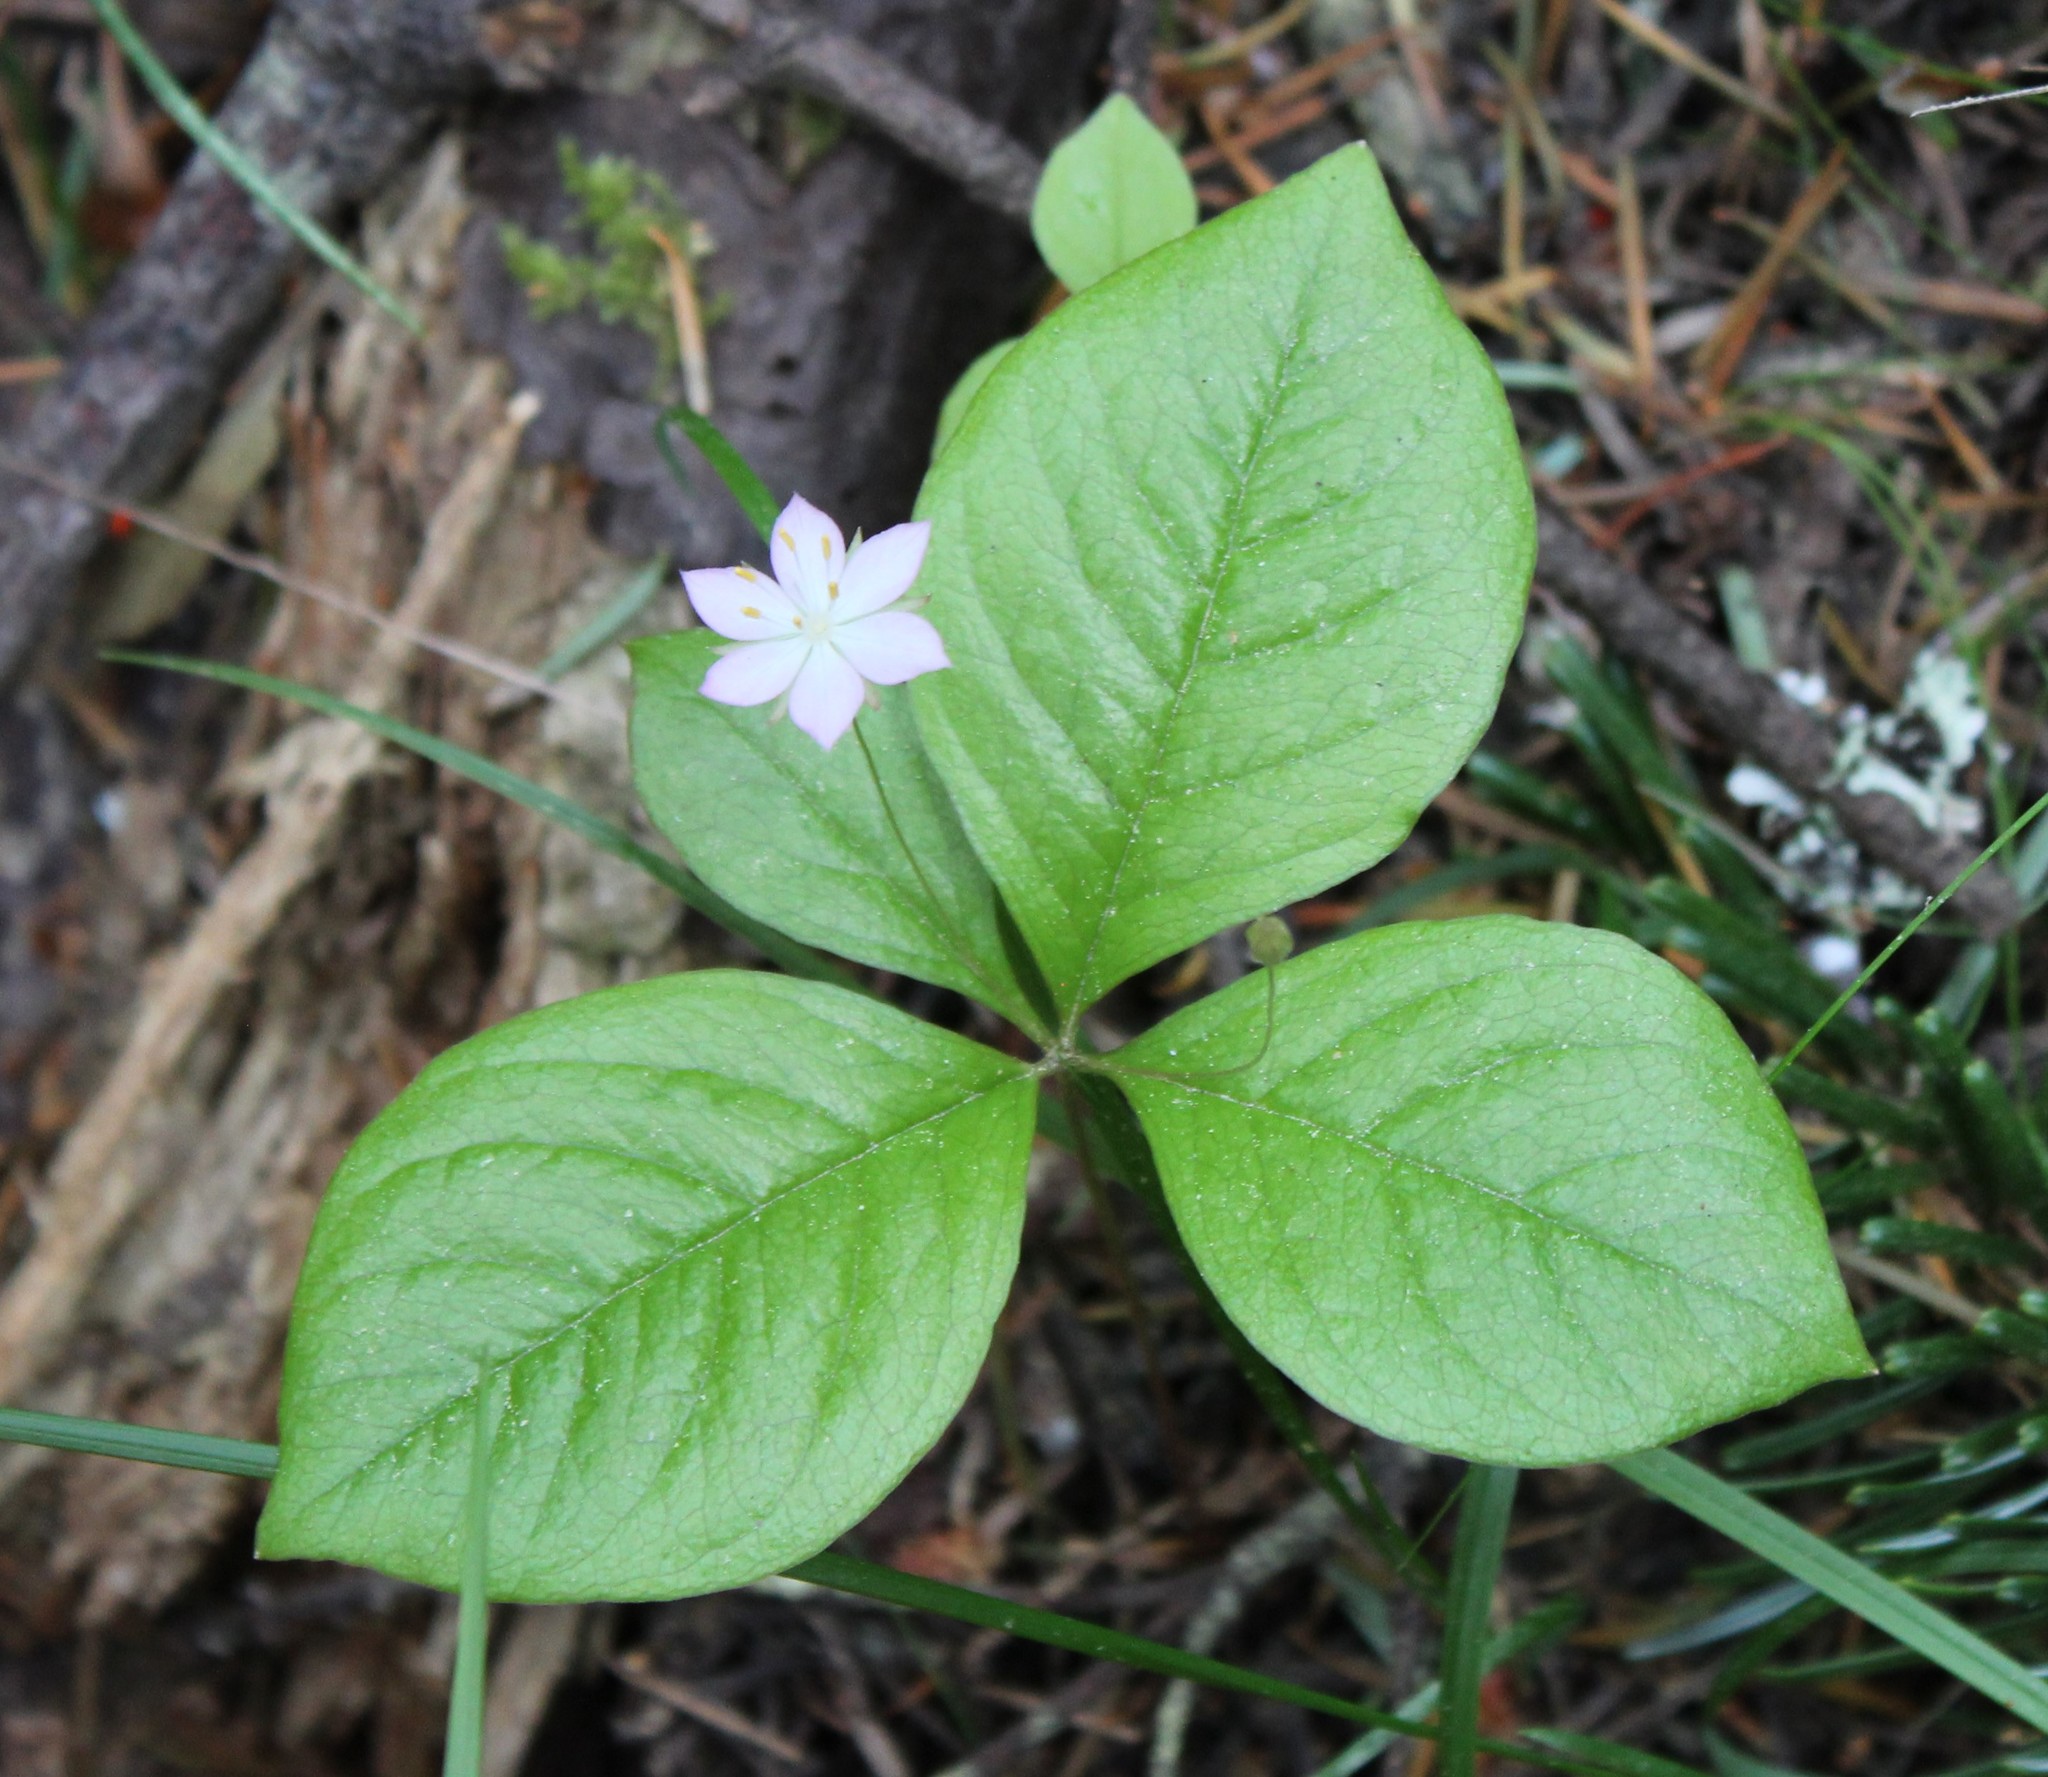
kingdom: Plantae
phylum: Tracheophyta
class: Magnoliopsida
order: Ericales
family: Primulaceae
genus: Lysimachia
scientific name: Lysimachia latifolia
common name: Pacific starflower
